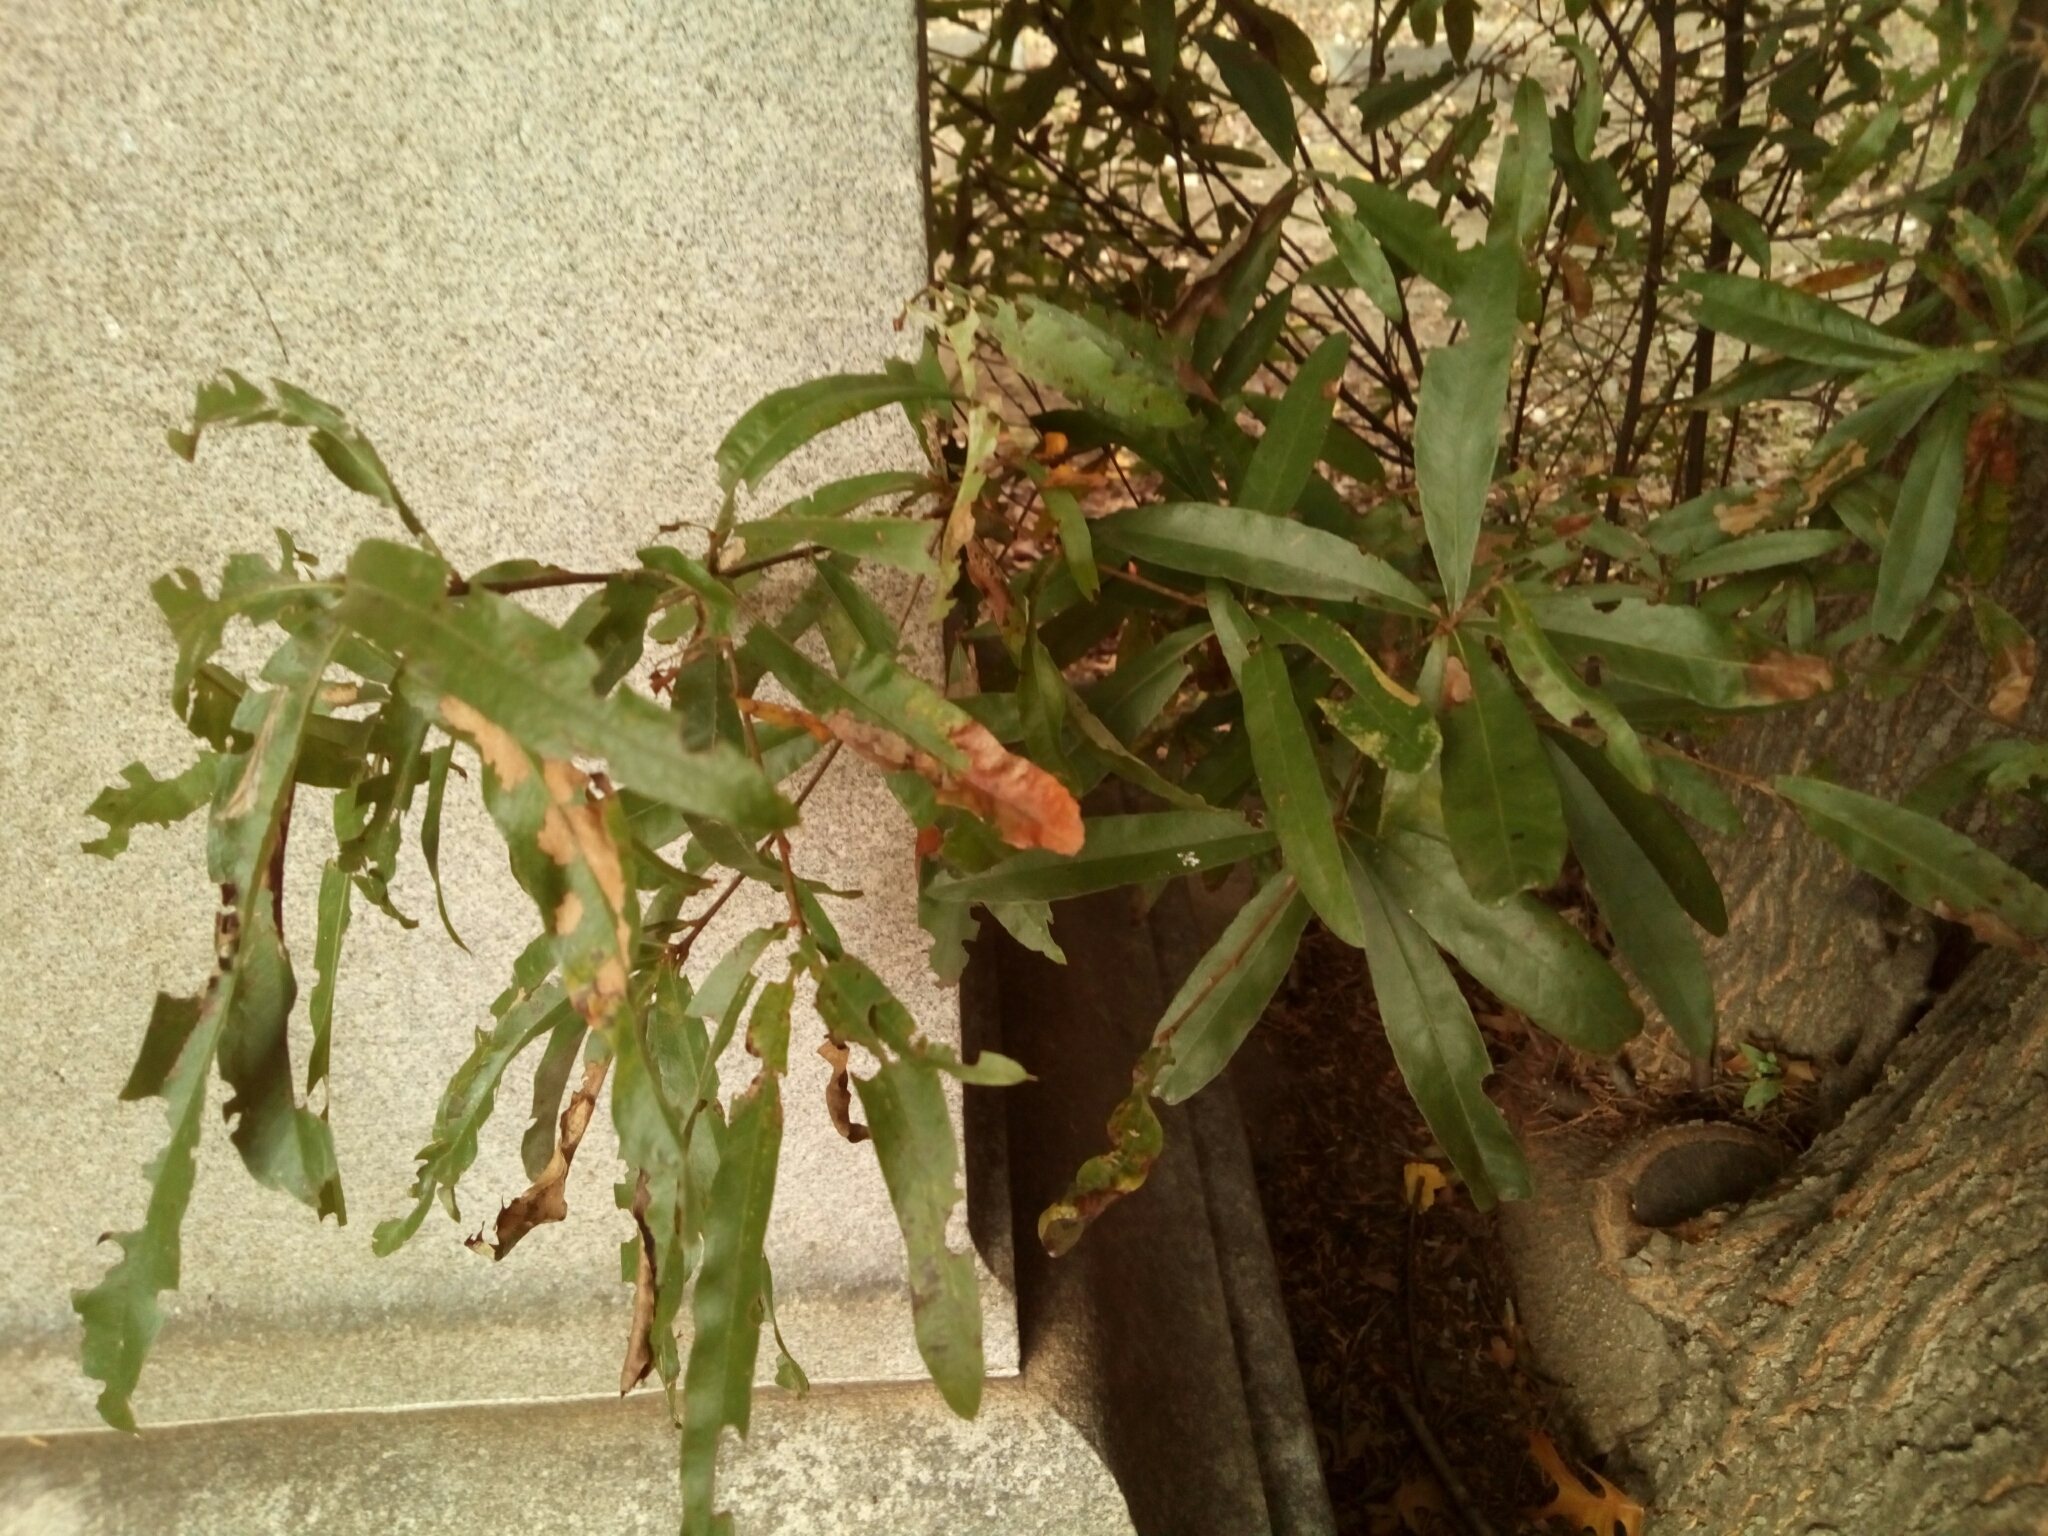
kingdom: Plantae
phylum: Tracheophyta
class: Magnoliopsida
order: Fagales
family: Fagaceae
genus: Quercus
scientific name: Quercus phellos
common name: Willow oak
